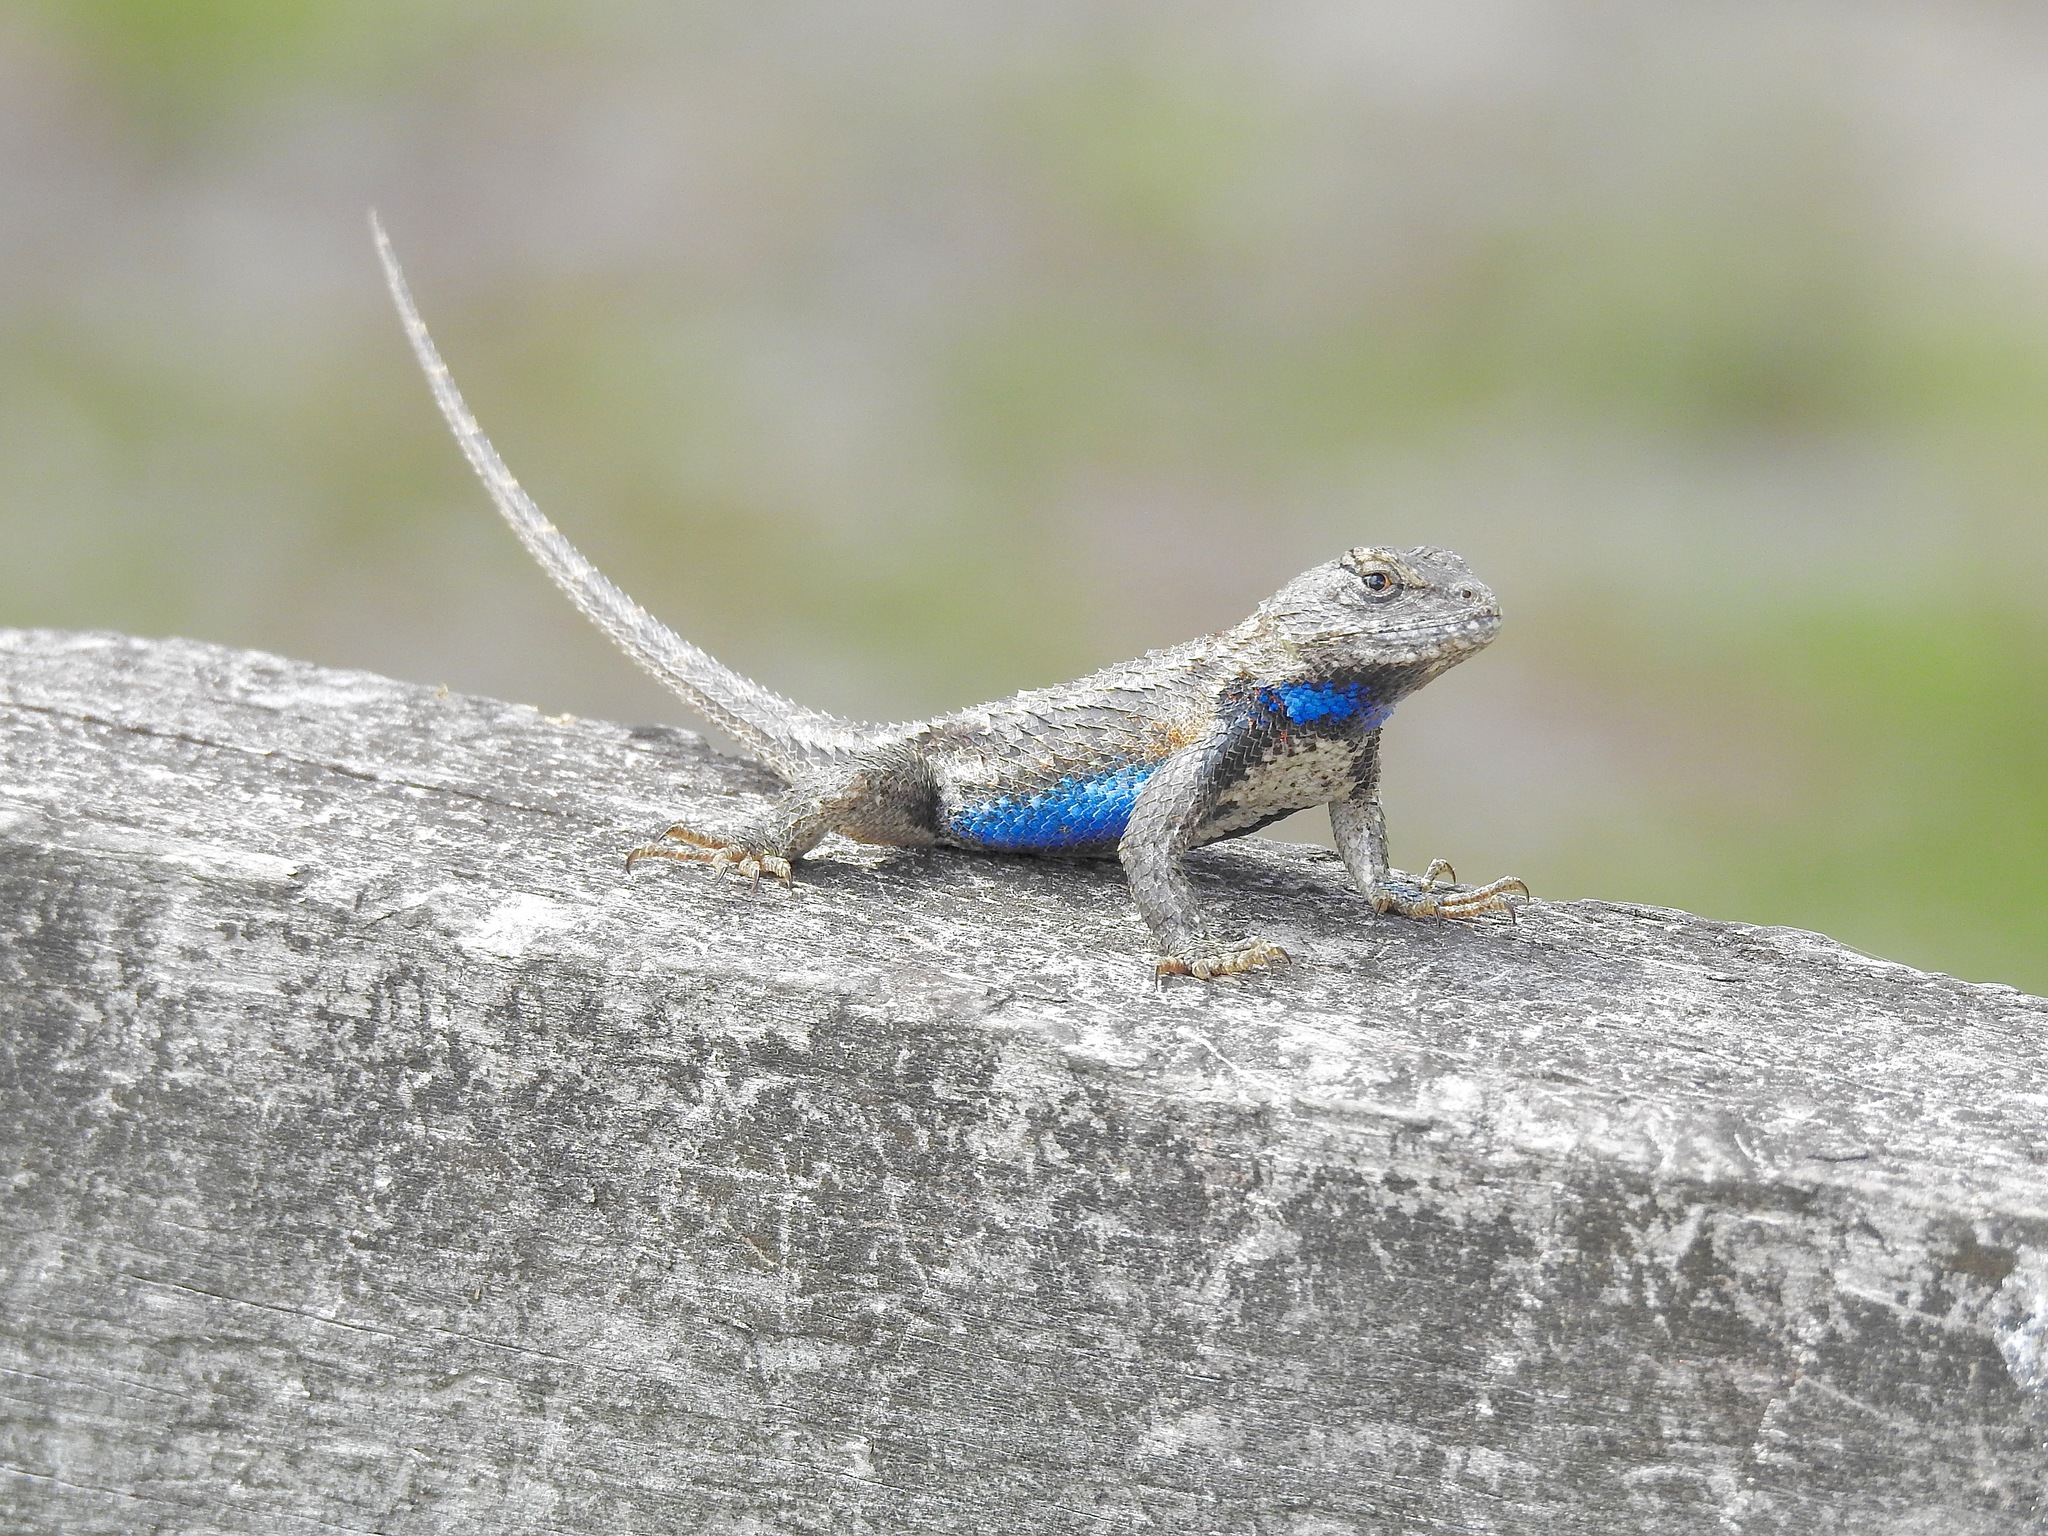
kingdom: Animalia
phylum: Chordata
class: Squamata
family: Phrynosomatidae
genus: Sceloporus
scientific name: Sceloporus undulatus
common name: Eastern fence lizard
